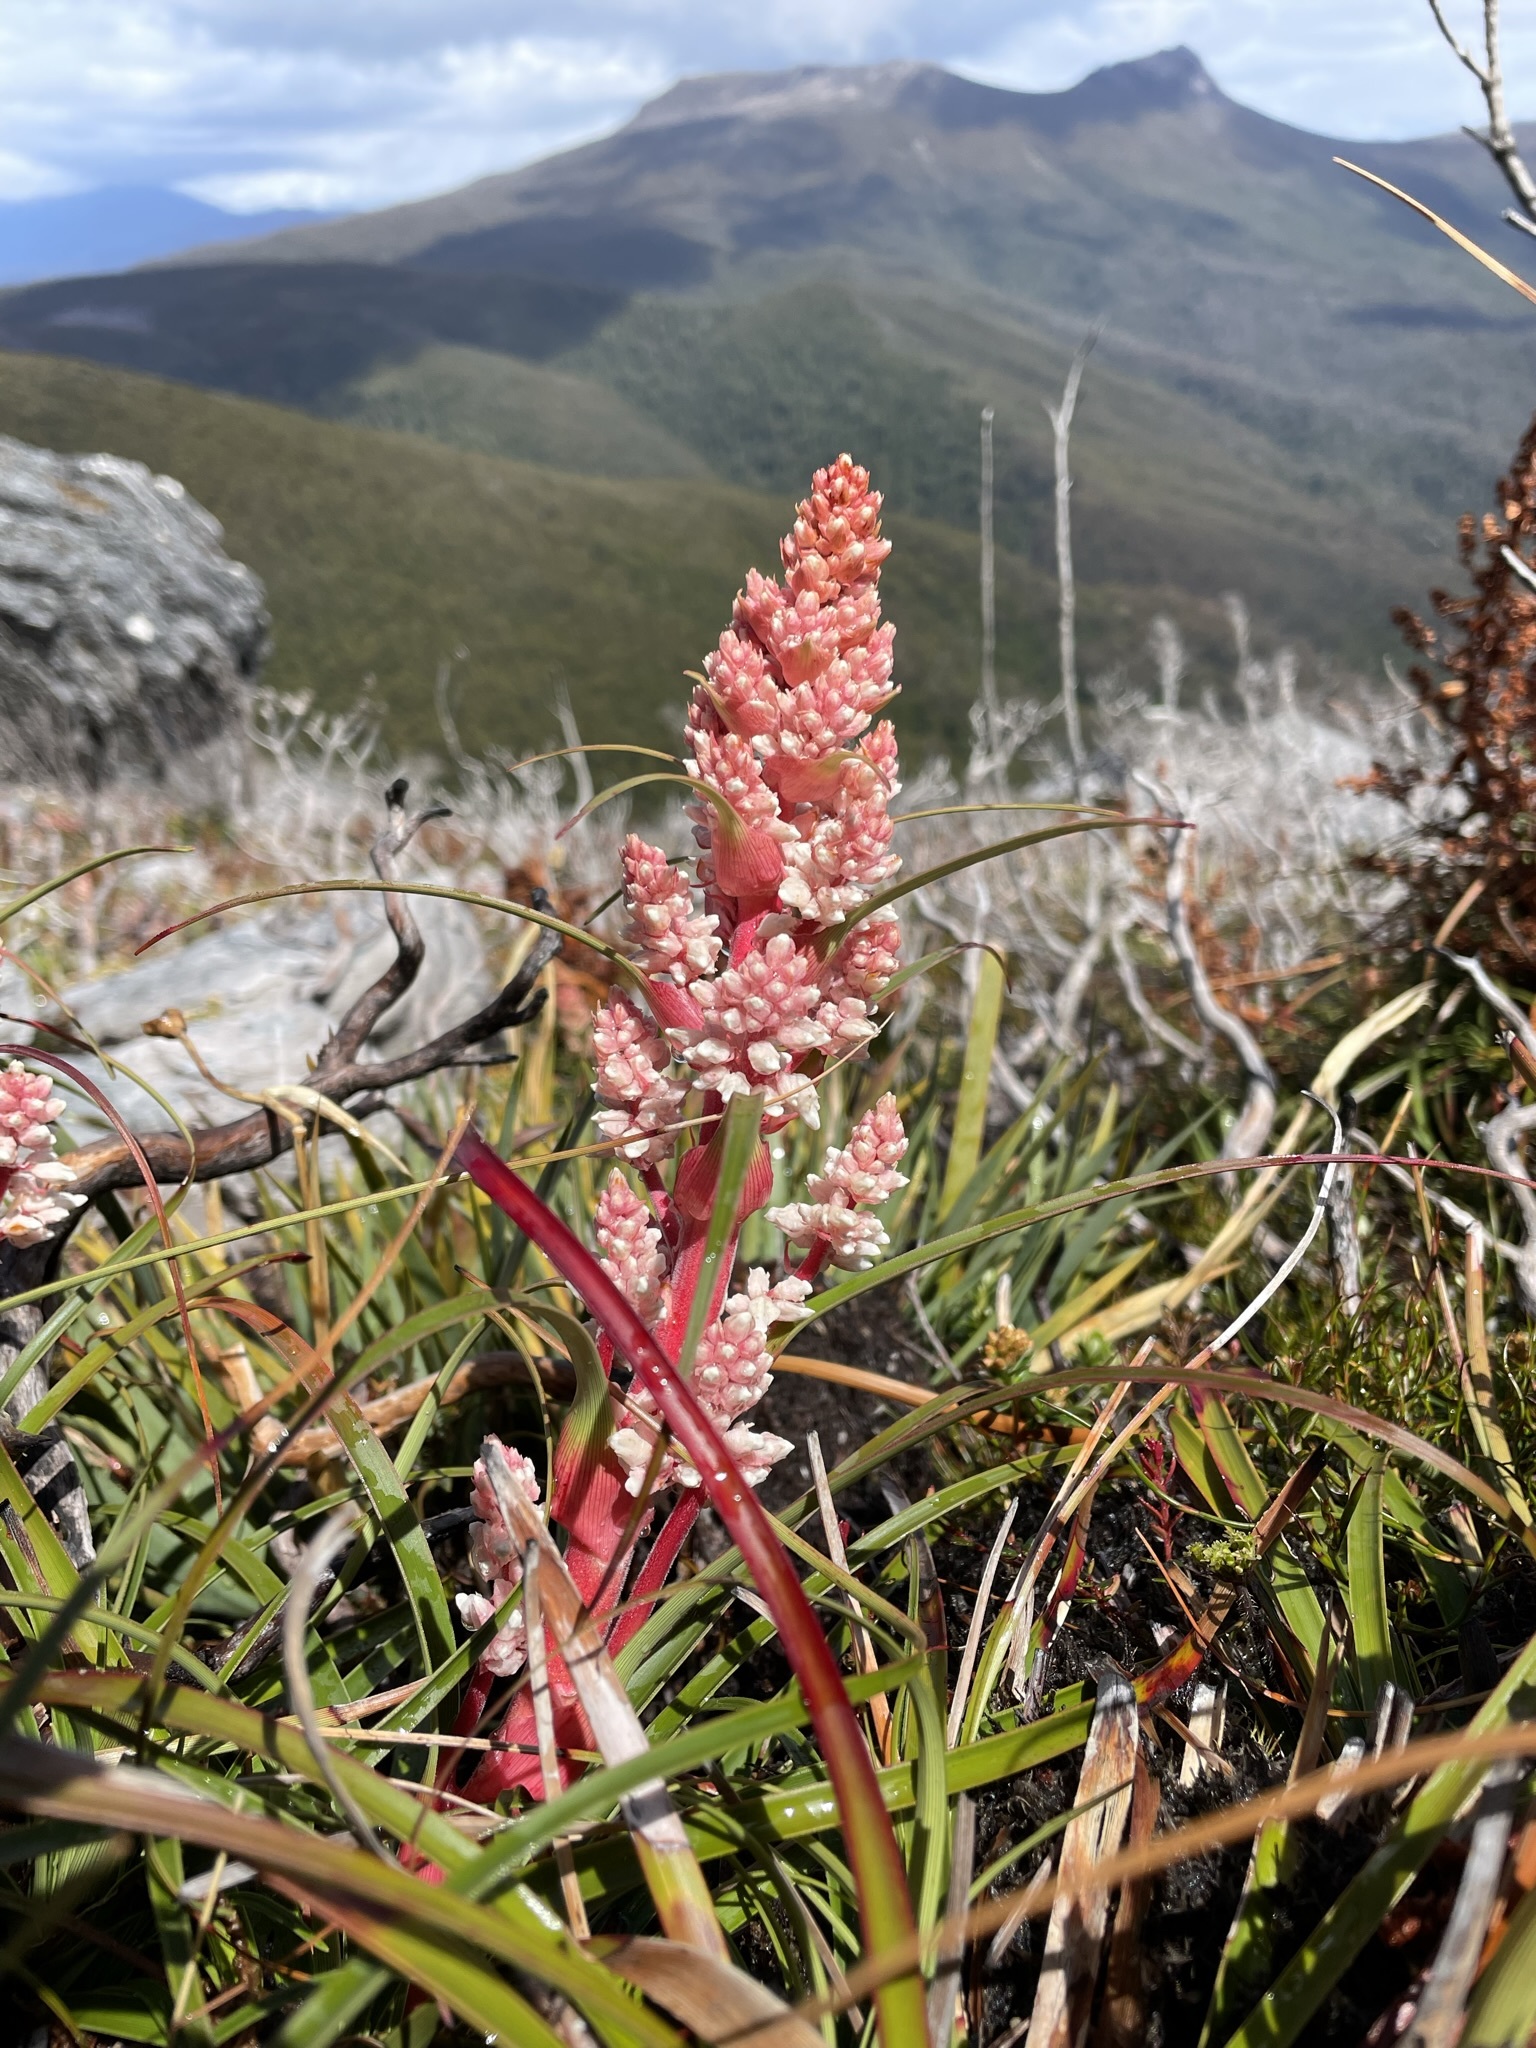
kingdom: Plantae
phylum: Tracheophyta
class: Magnoliopsida
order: Ericales
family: Ericaceae
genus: Dracophyllum
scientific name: Dracophyllum milliganii
